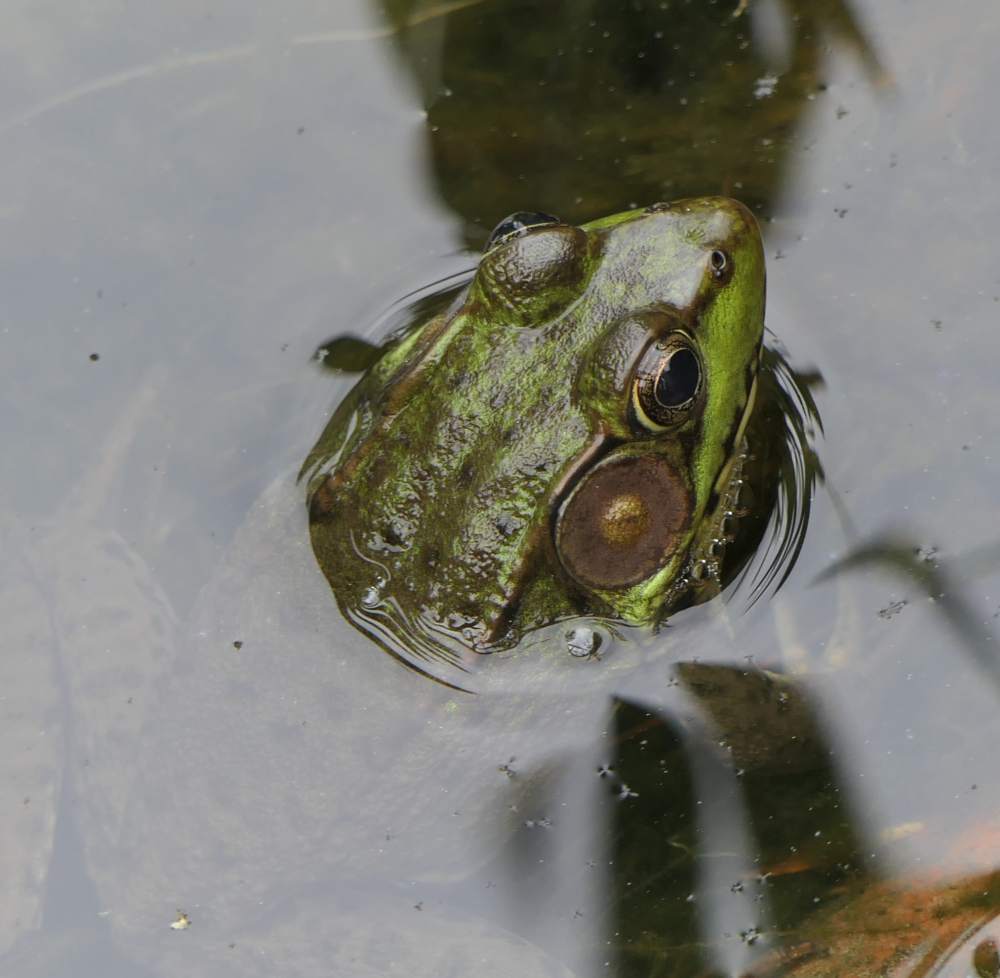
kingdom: Animalia
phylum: Chordata
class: Amphibia
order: Anura
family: Ranidae
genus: Lithobates
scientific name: Lithobates clamitans
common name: Green frog
